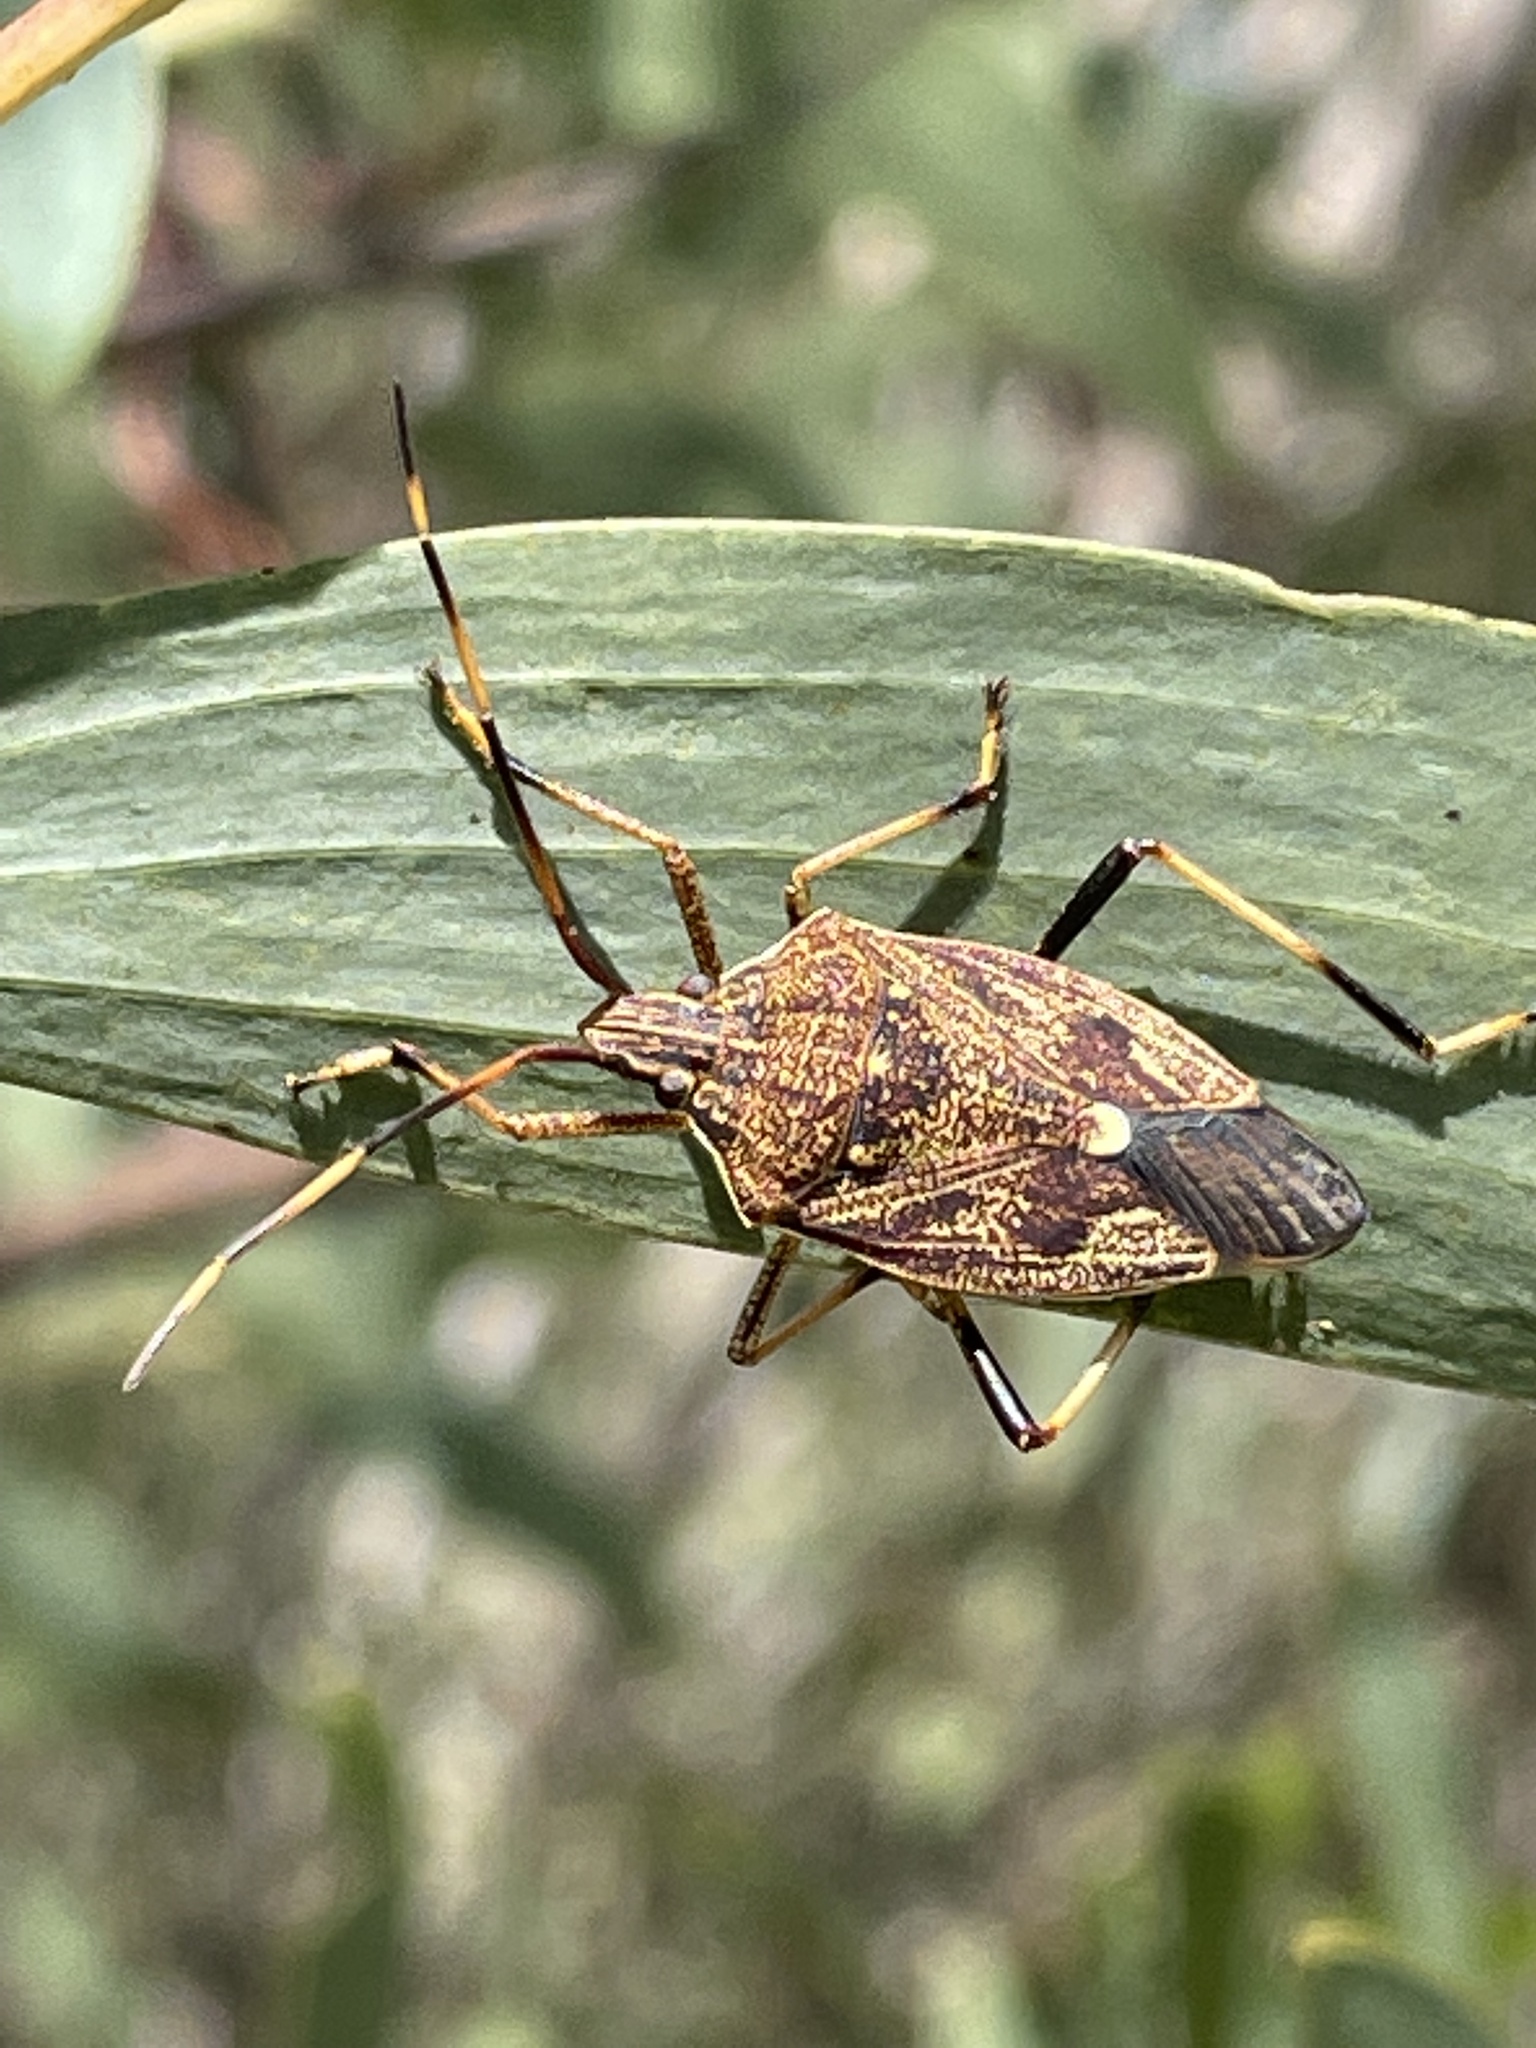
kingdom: Animalia
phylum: Arthropoda
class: Insecta
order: Hemiptera
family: Pentatomidae
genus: Poecilometis
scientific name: Poecilometis
